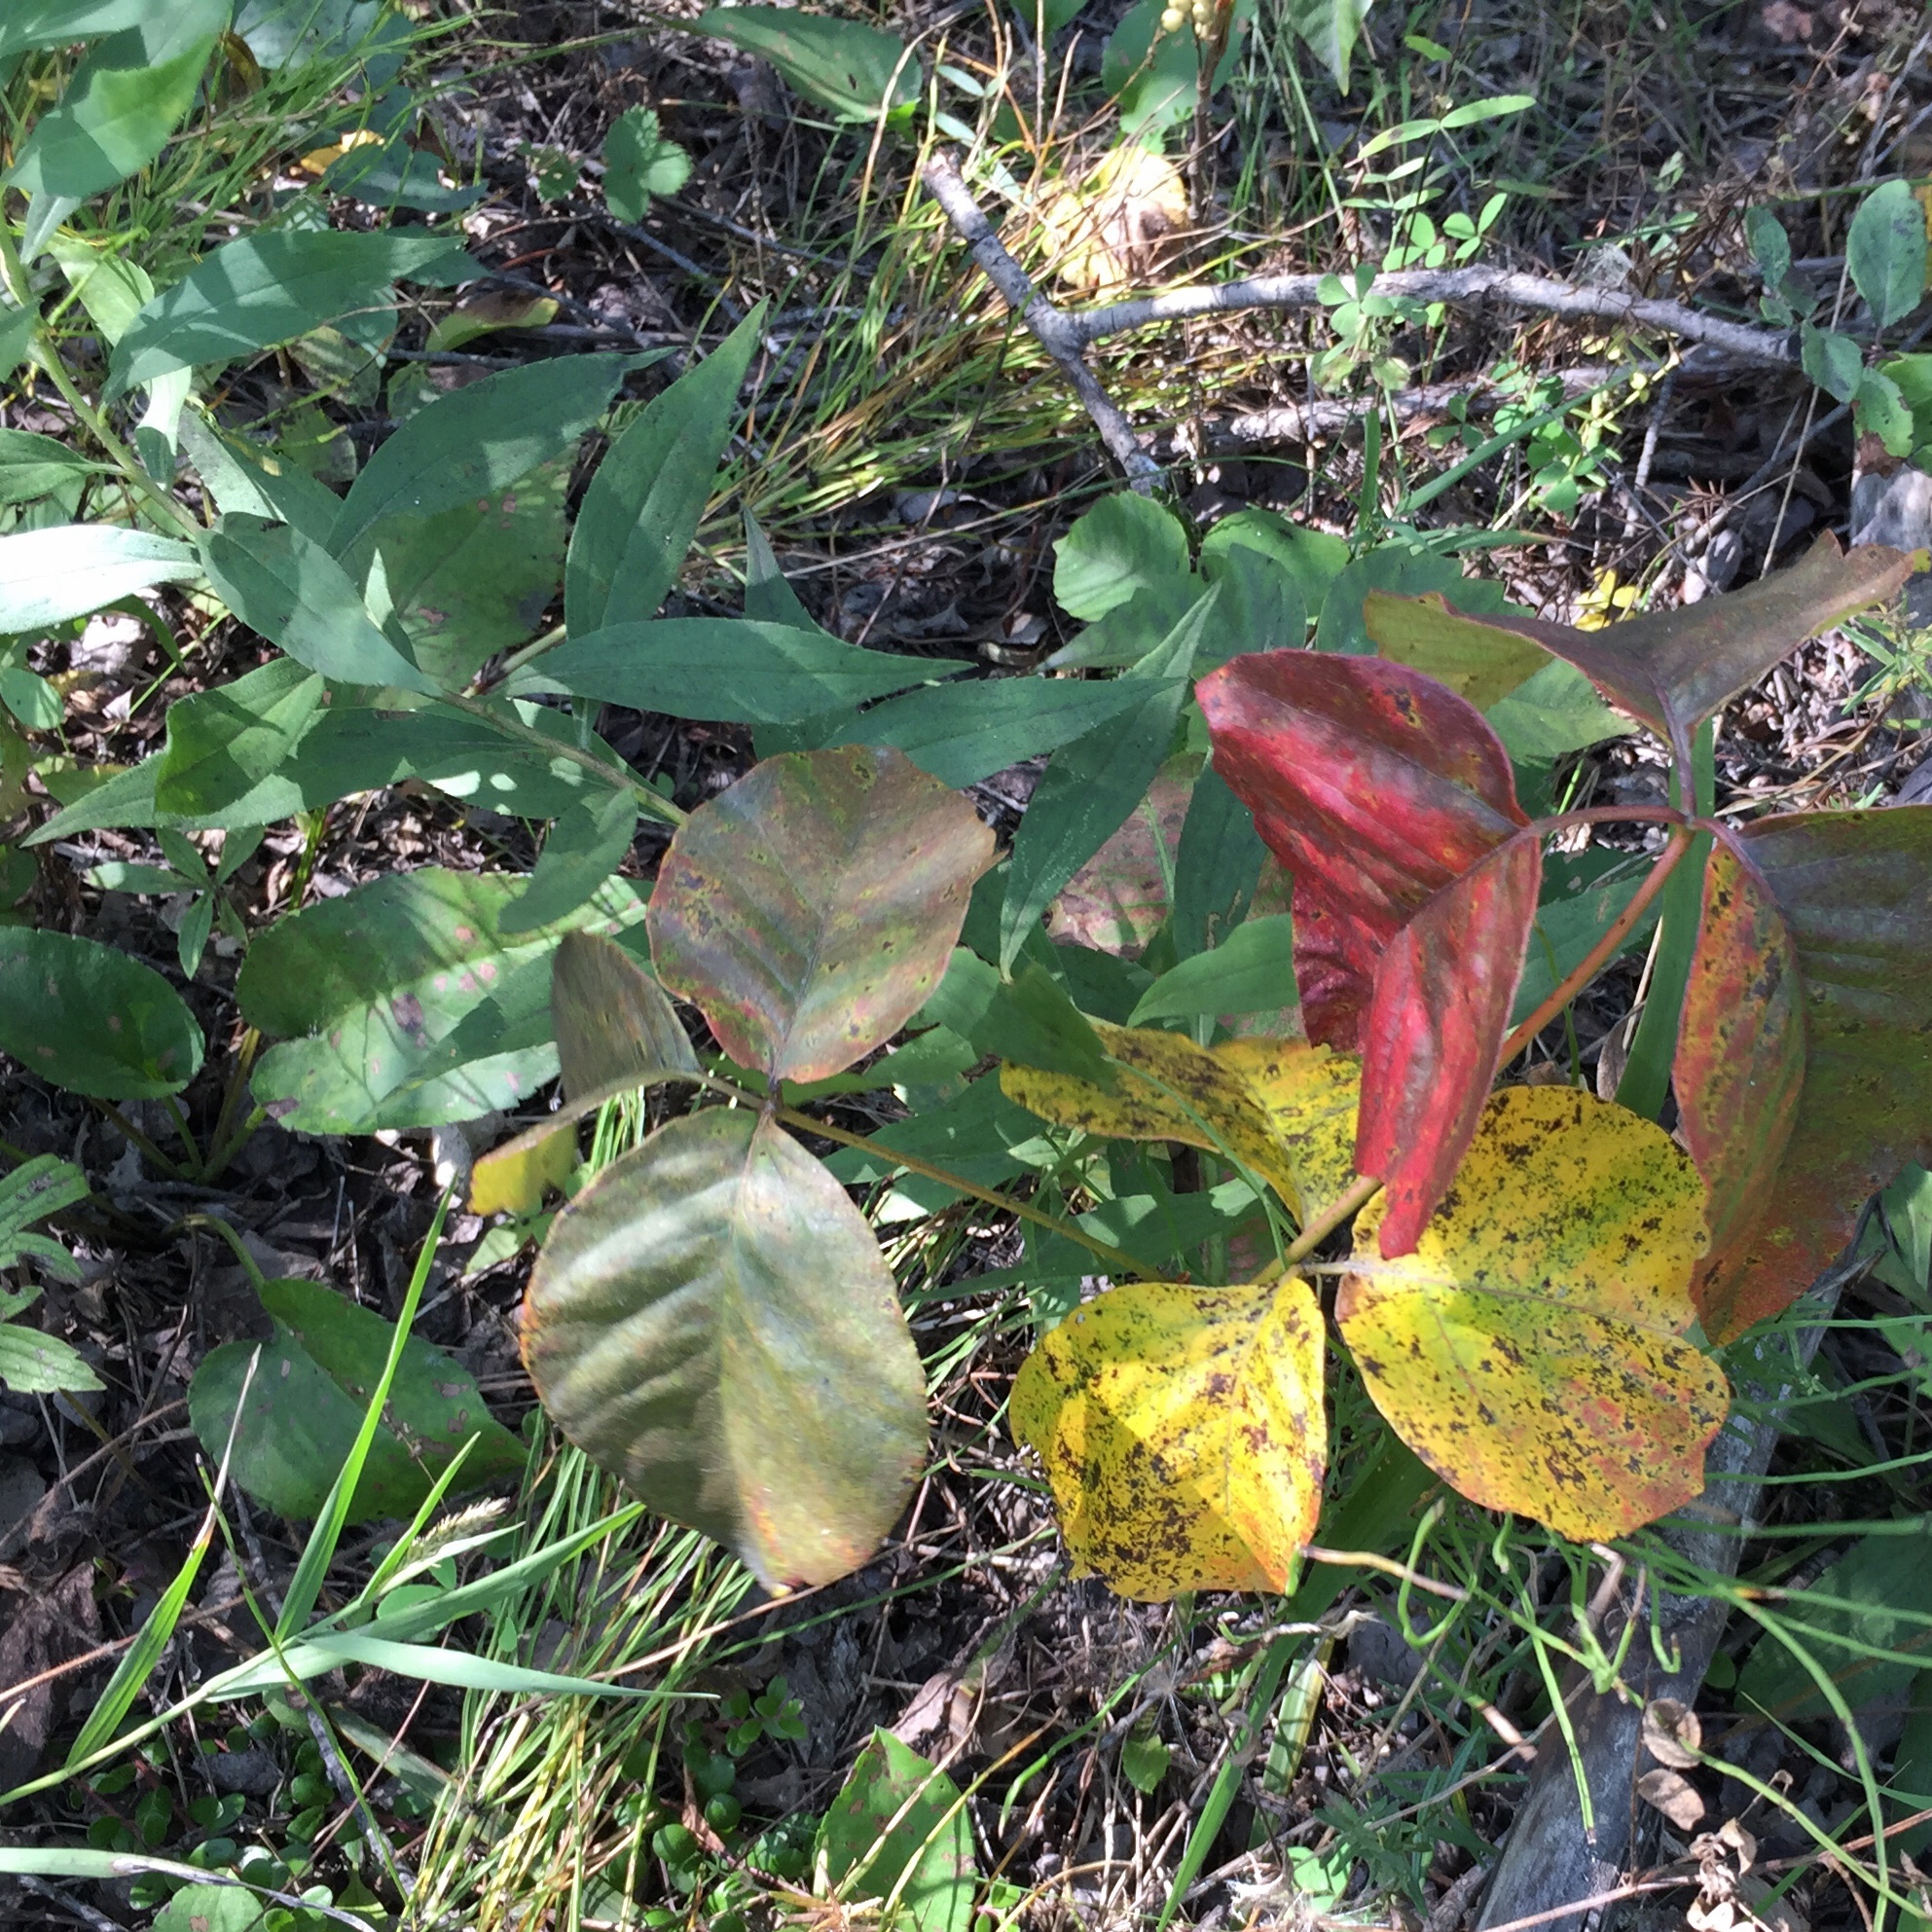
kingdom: Plantae
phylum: Tracheophyta
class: Magnoliopsida
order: Sapindales
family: Anacardiaceae
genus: Toxicodendron
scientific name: Toxicodendron rydbergii
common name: Rydberg's poison-ivy
